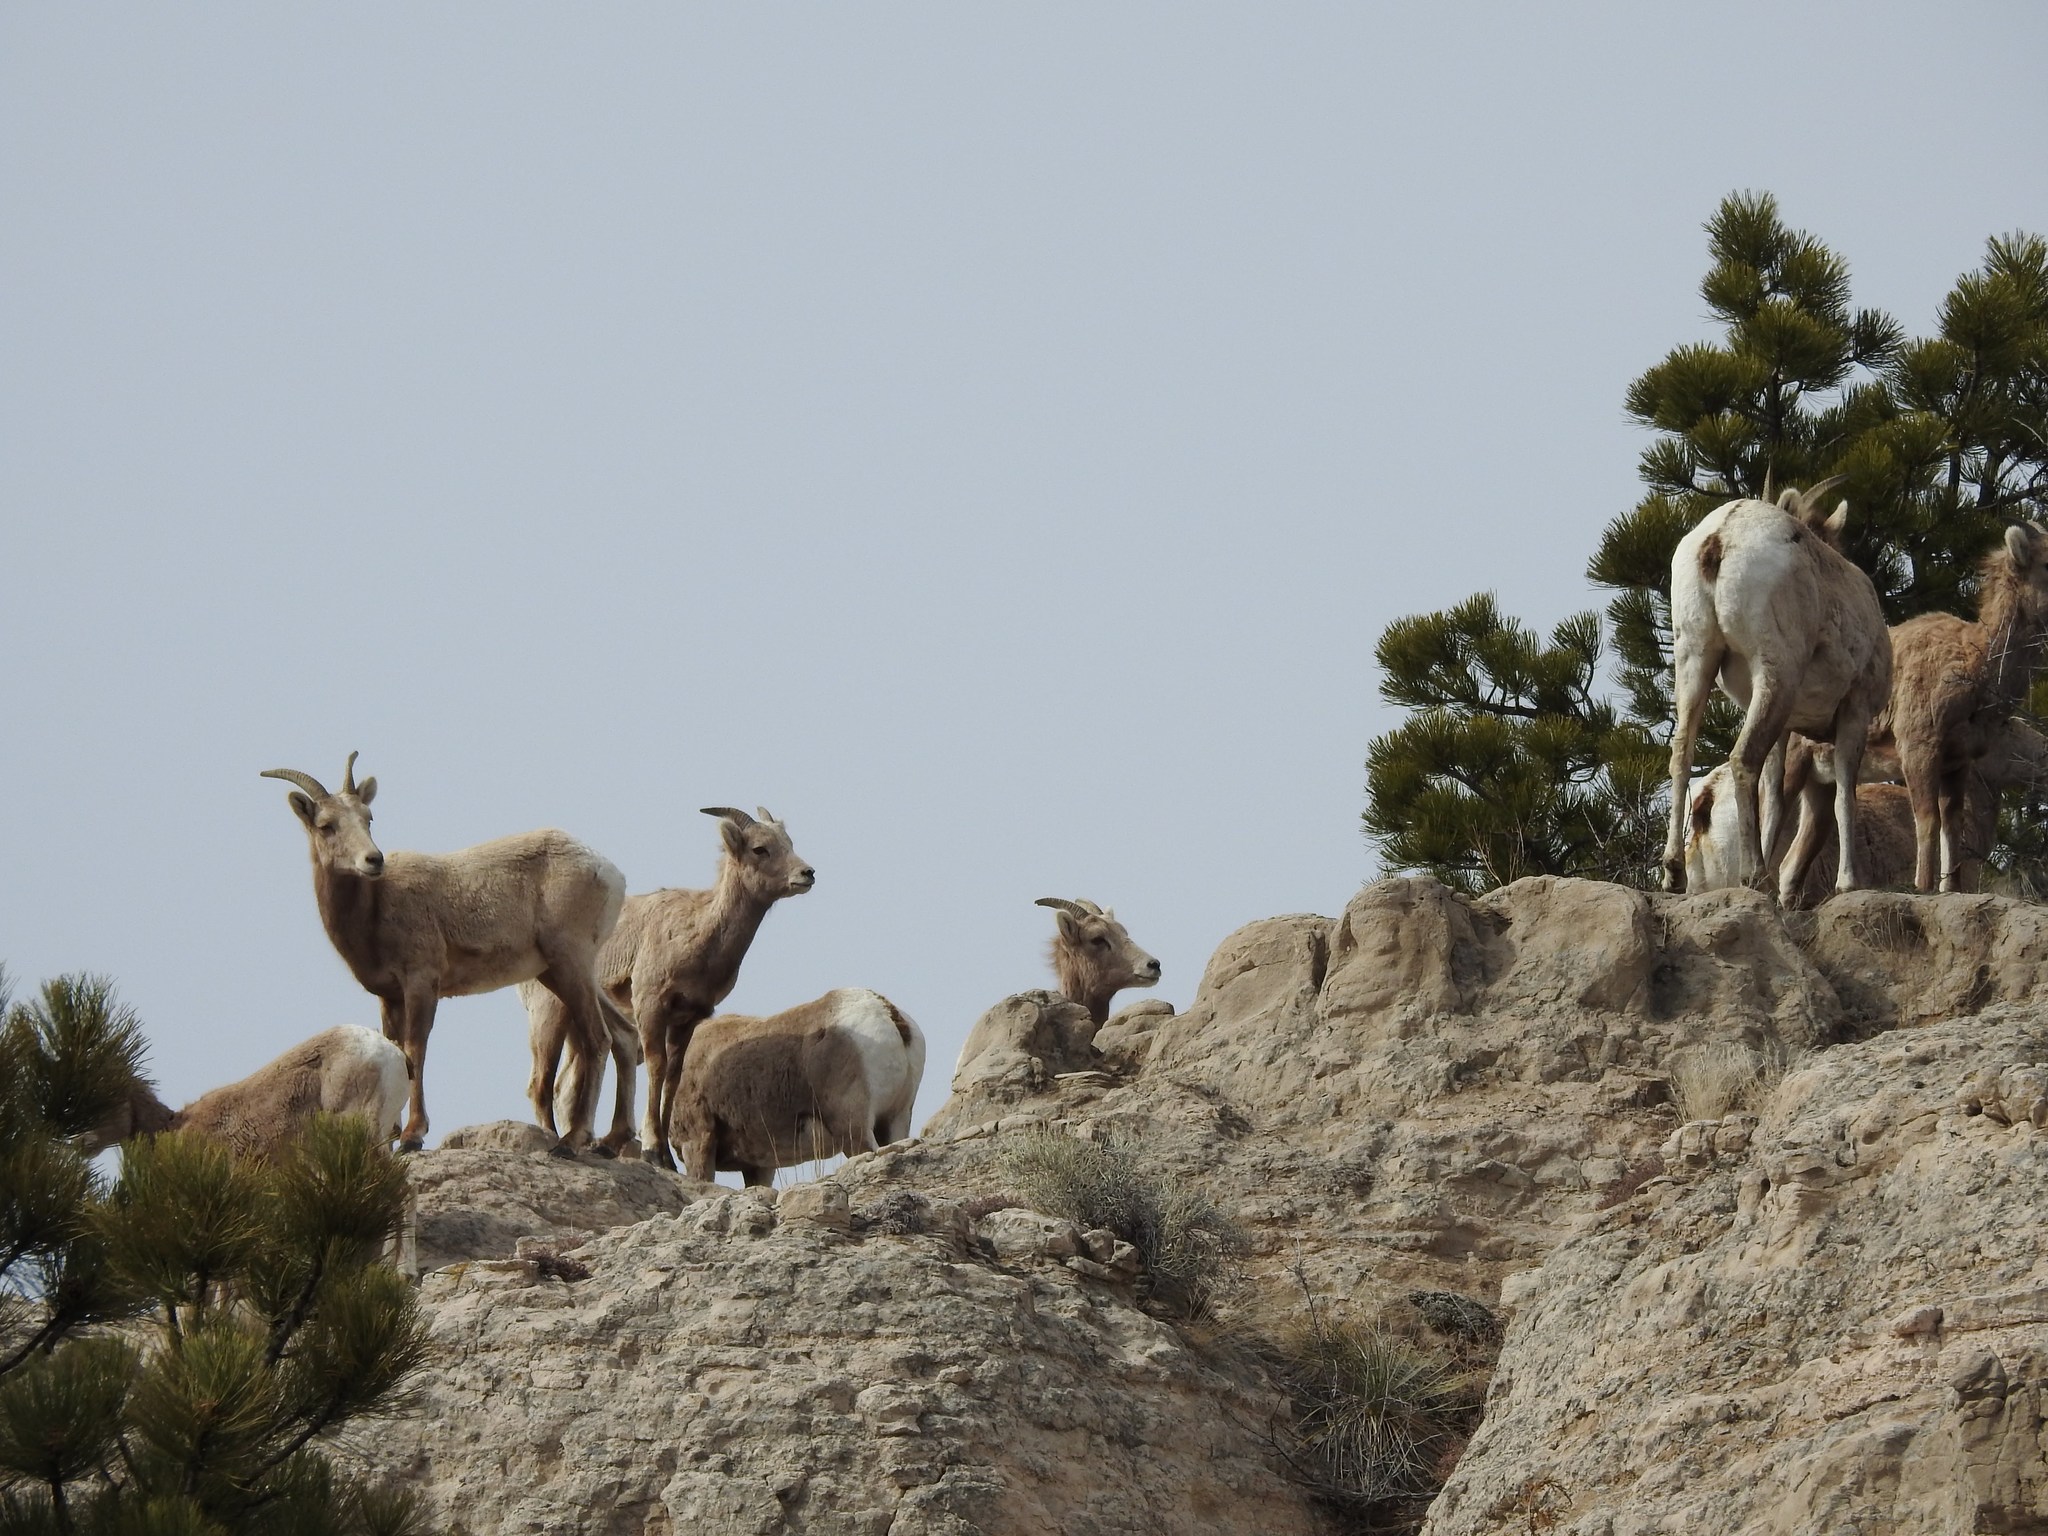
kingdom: Animalia
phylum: Chordata
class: Mammalia
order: Artiodactyla
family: Bovidae
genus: Ovis
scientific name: Ovis canadensis
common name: Bighorn sheep
